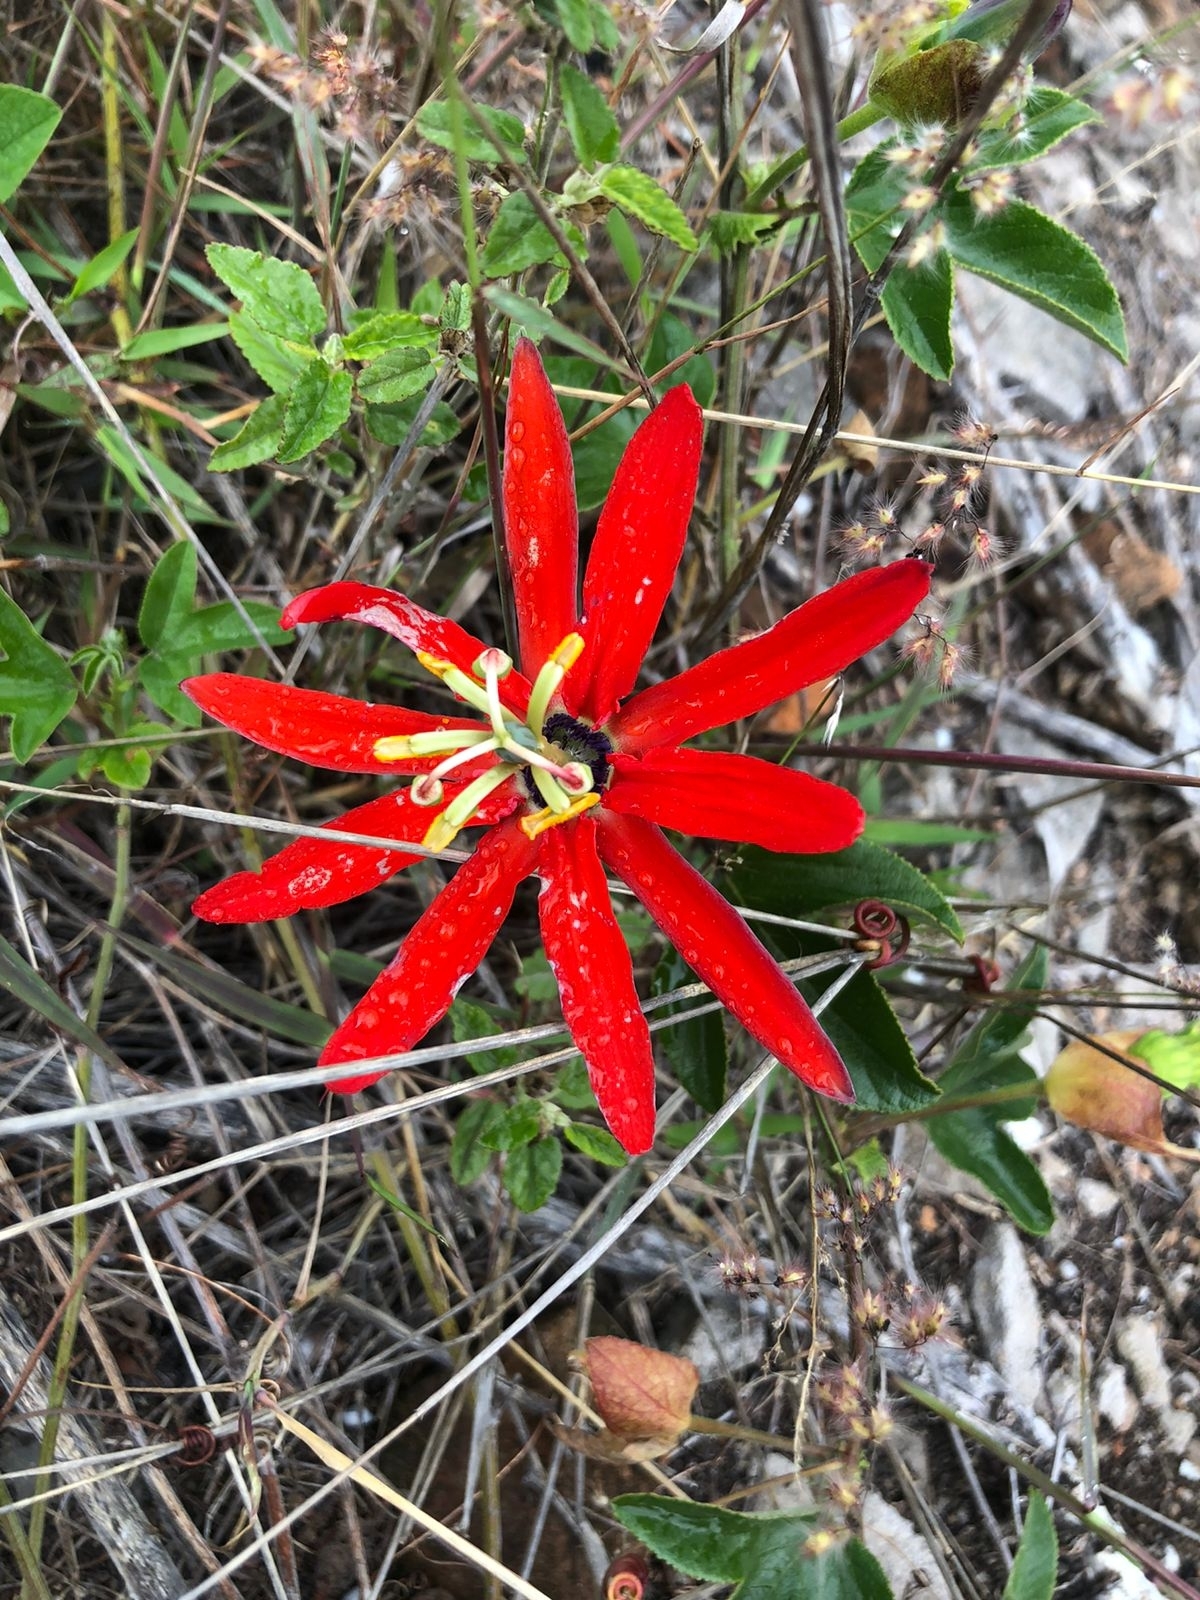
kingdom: Plantae
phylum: Tracheophyta
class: Magnoliopsida
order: Malpighiales
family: Passifloraceae
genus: Passiflora
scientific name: Passiflora manicata
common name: Red passionflower
